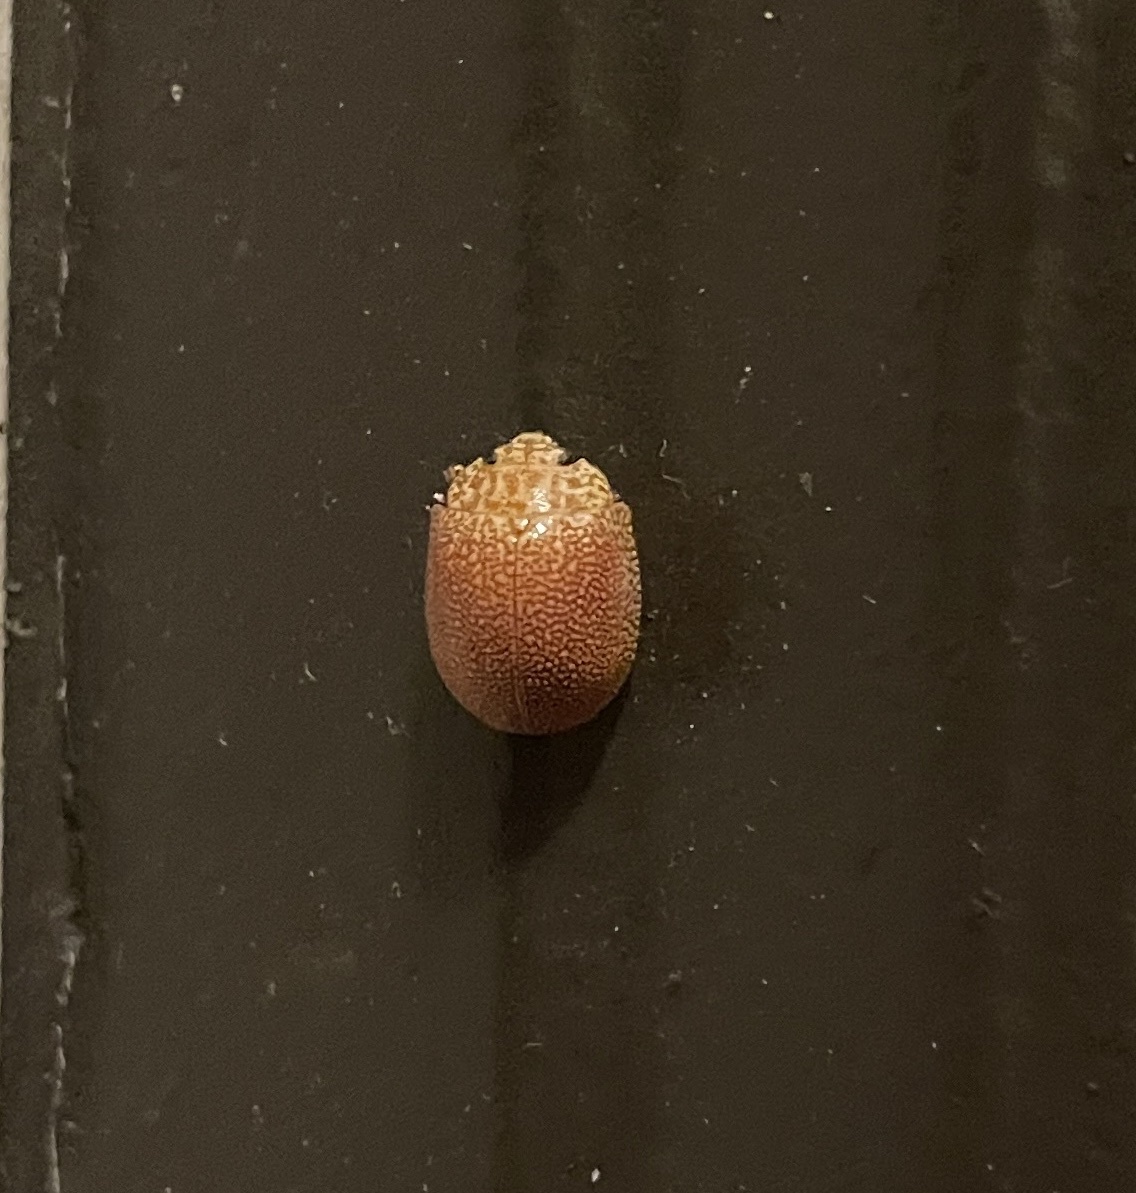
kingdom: Animalia
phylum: Arthropoda
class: Insecta
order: Coleoptera
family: Chrysomelidae
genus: Paropsis
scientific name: Paropsis
